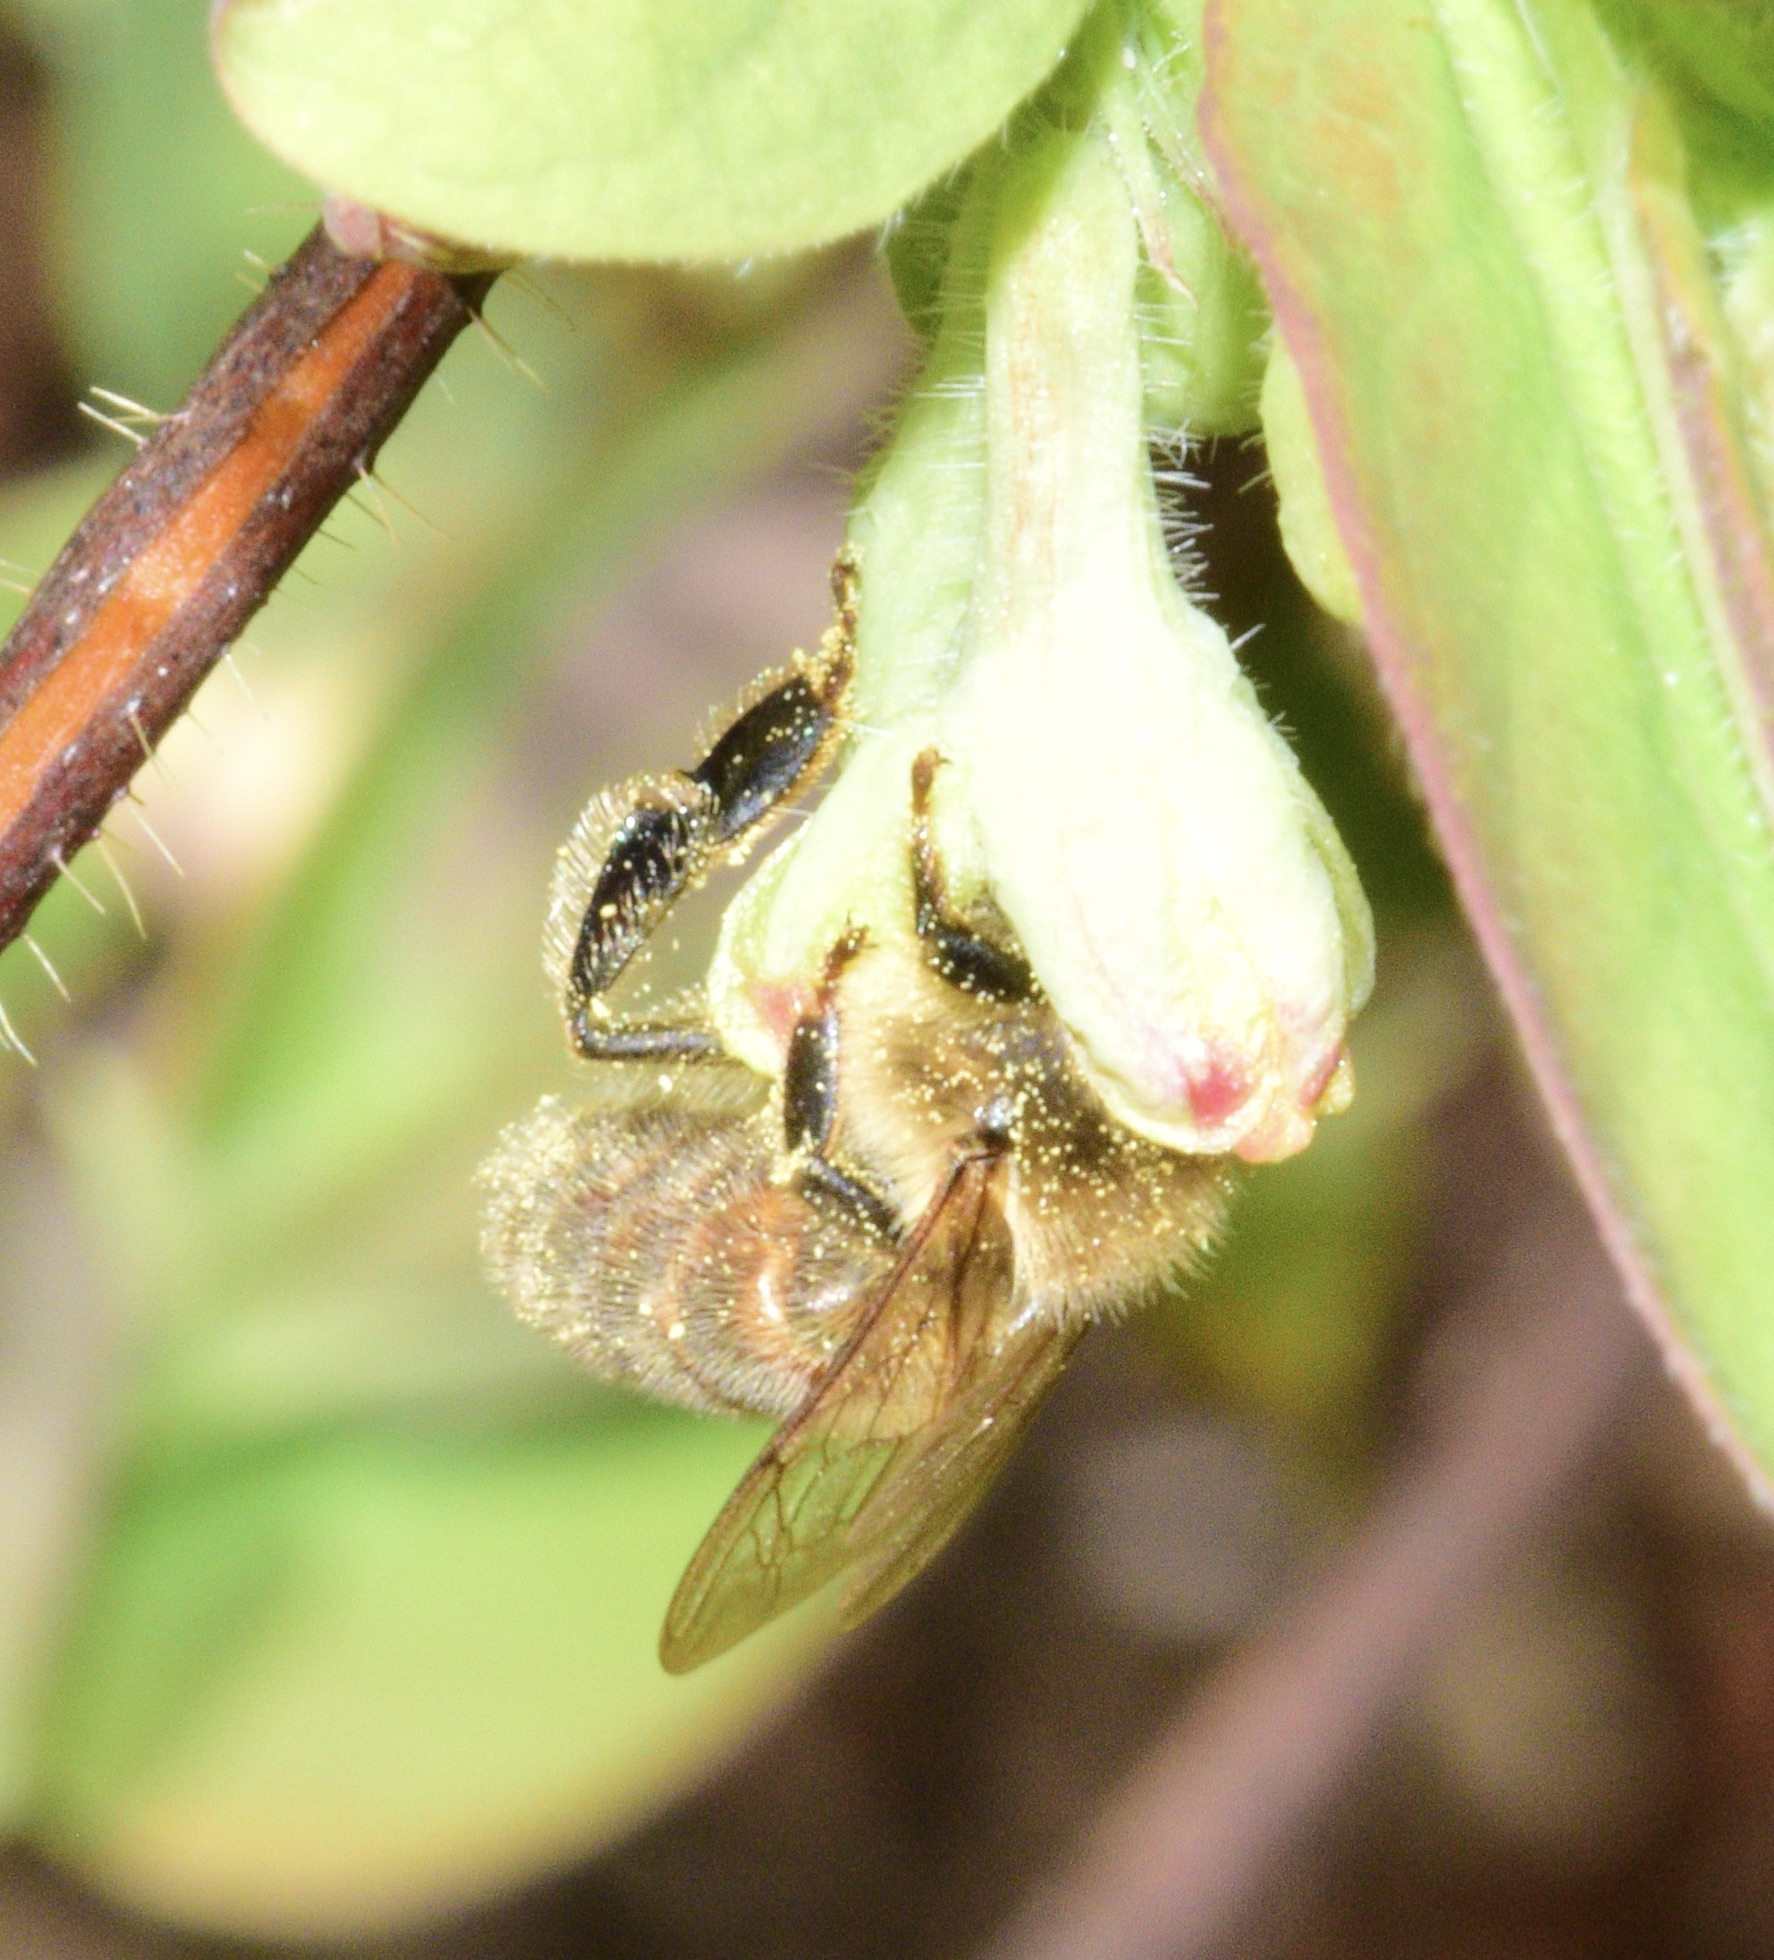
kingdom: Animalia
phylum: Arthropoda
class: Insecta
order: Hymenoptera
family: Apidae
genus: Apis
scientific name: Apis mellifera
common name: Honey bee
